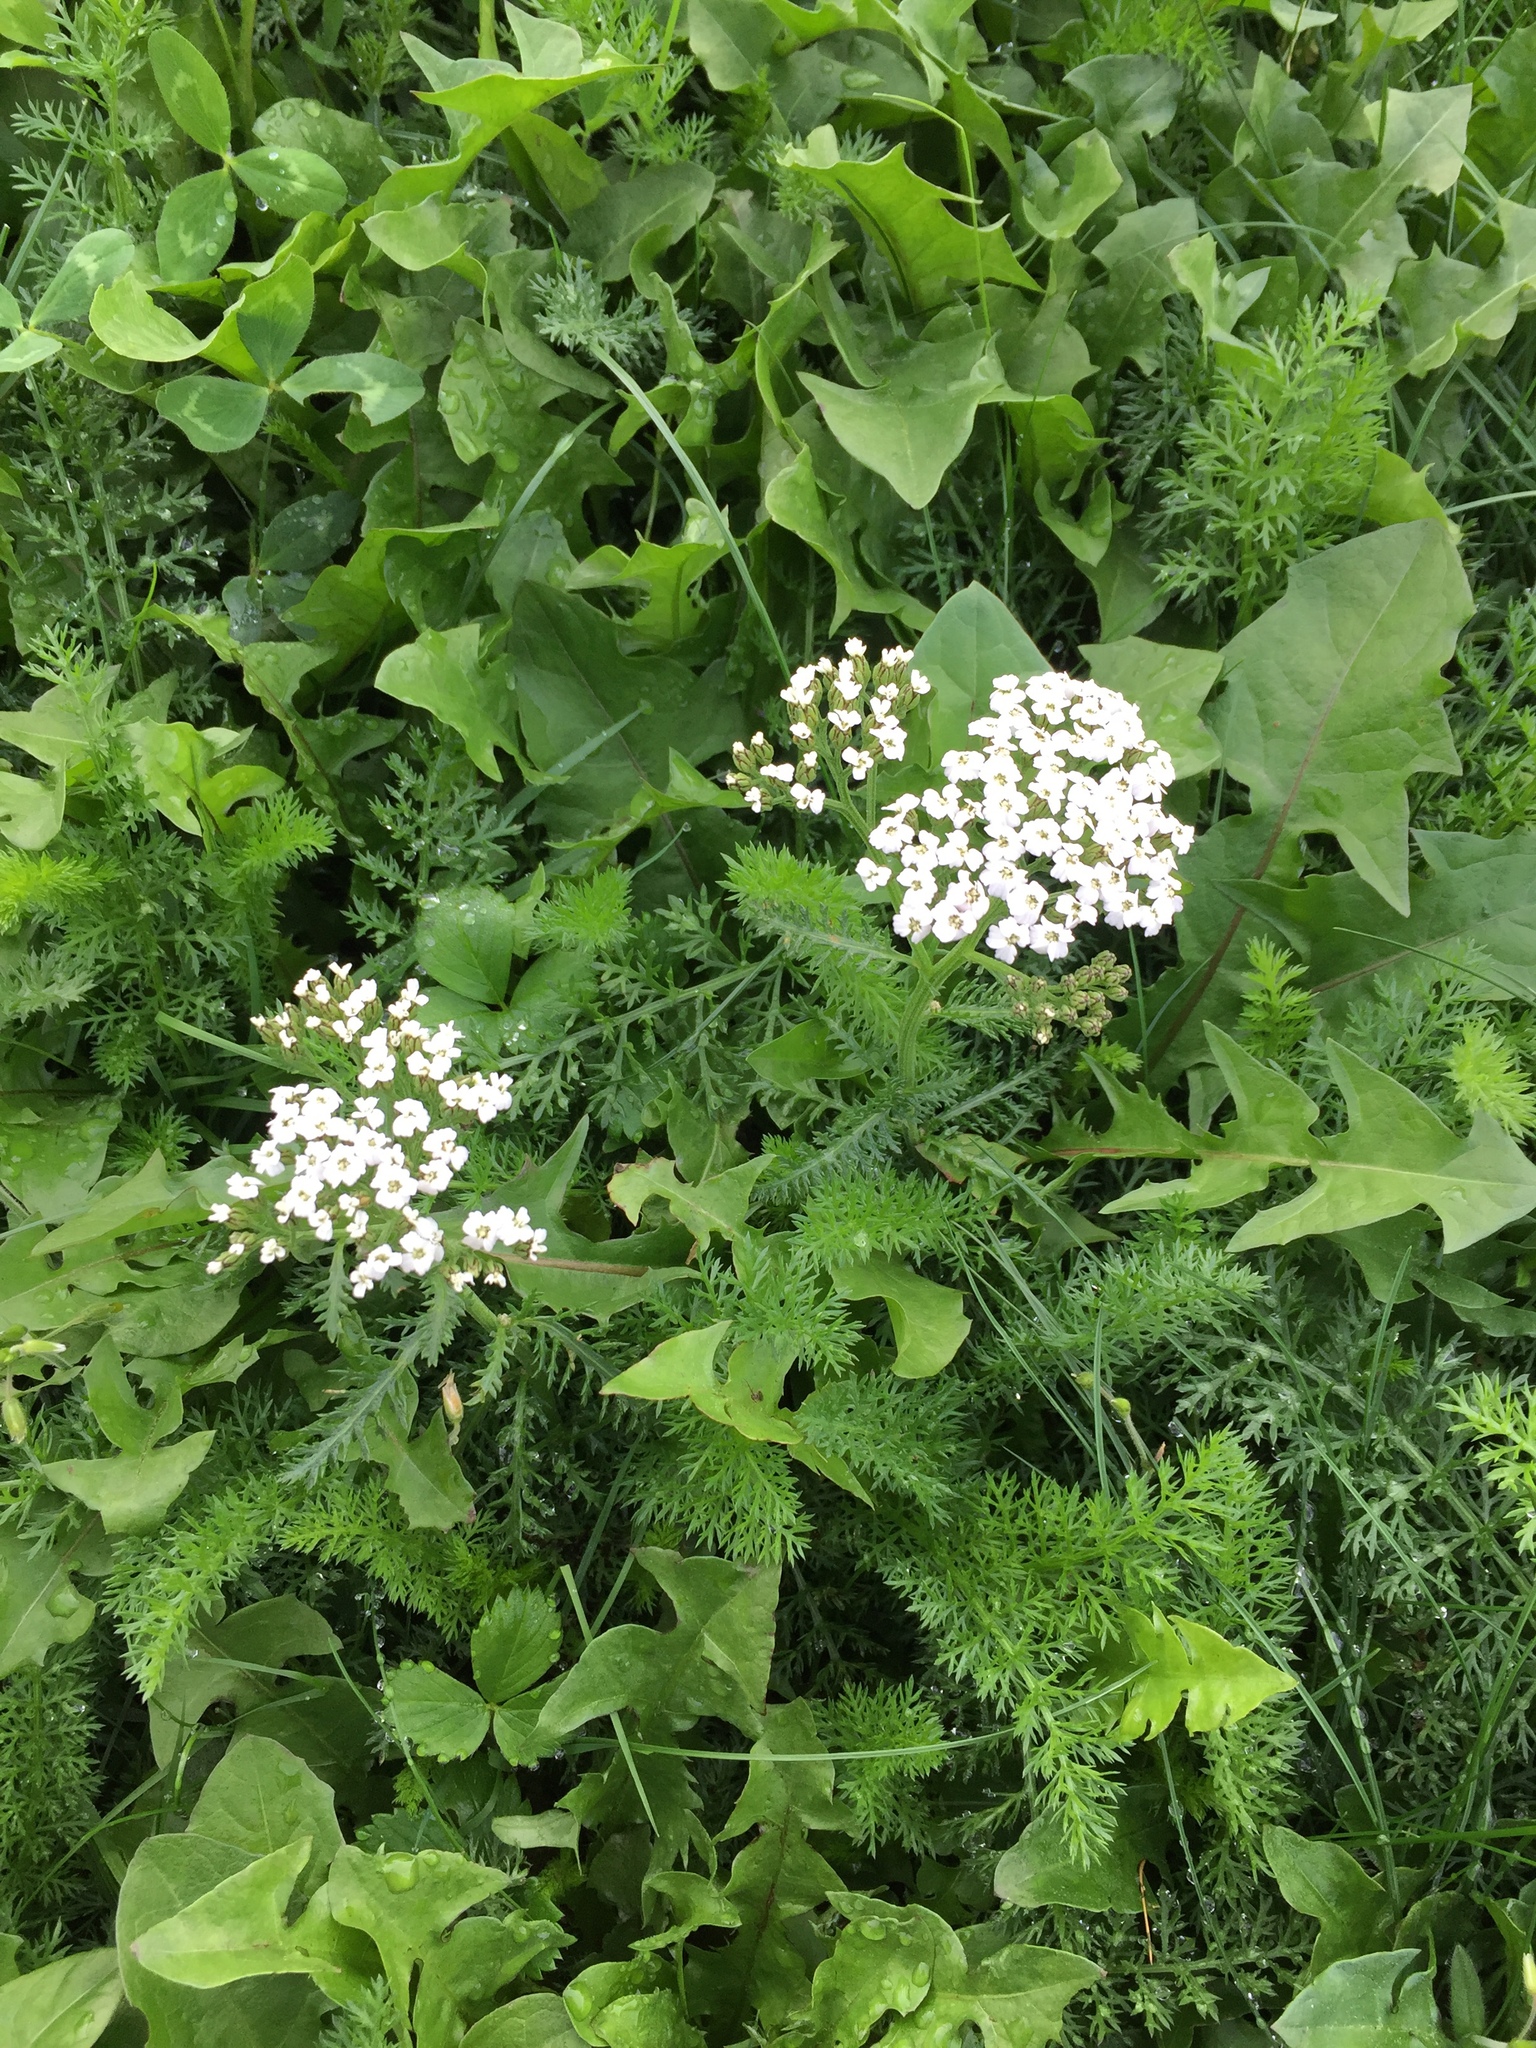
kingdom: Plantae
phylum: Tracheophyta
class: Magnoliopsida
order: Asterales
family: Asteraceae
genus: Achillea
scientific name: Achillea millefolium
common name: Yarrow
